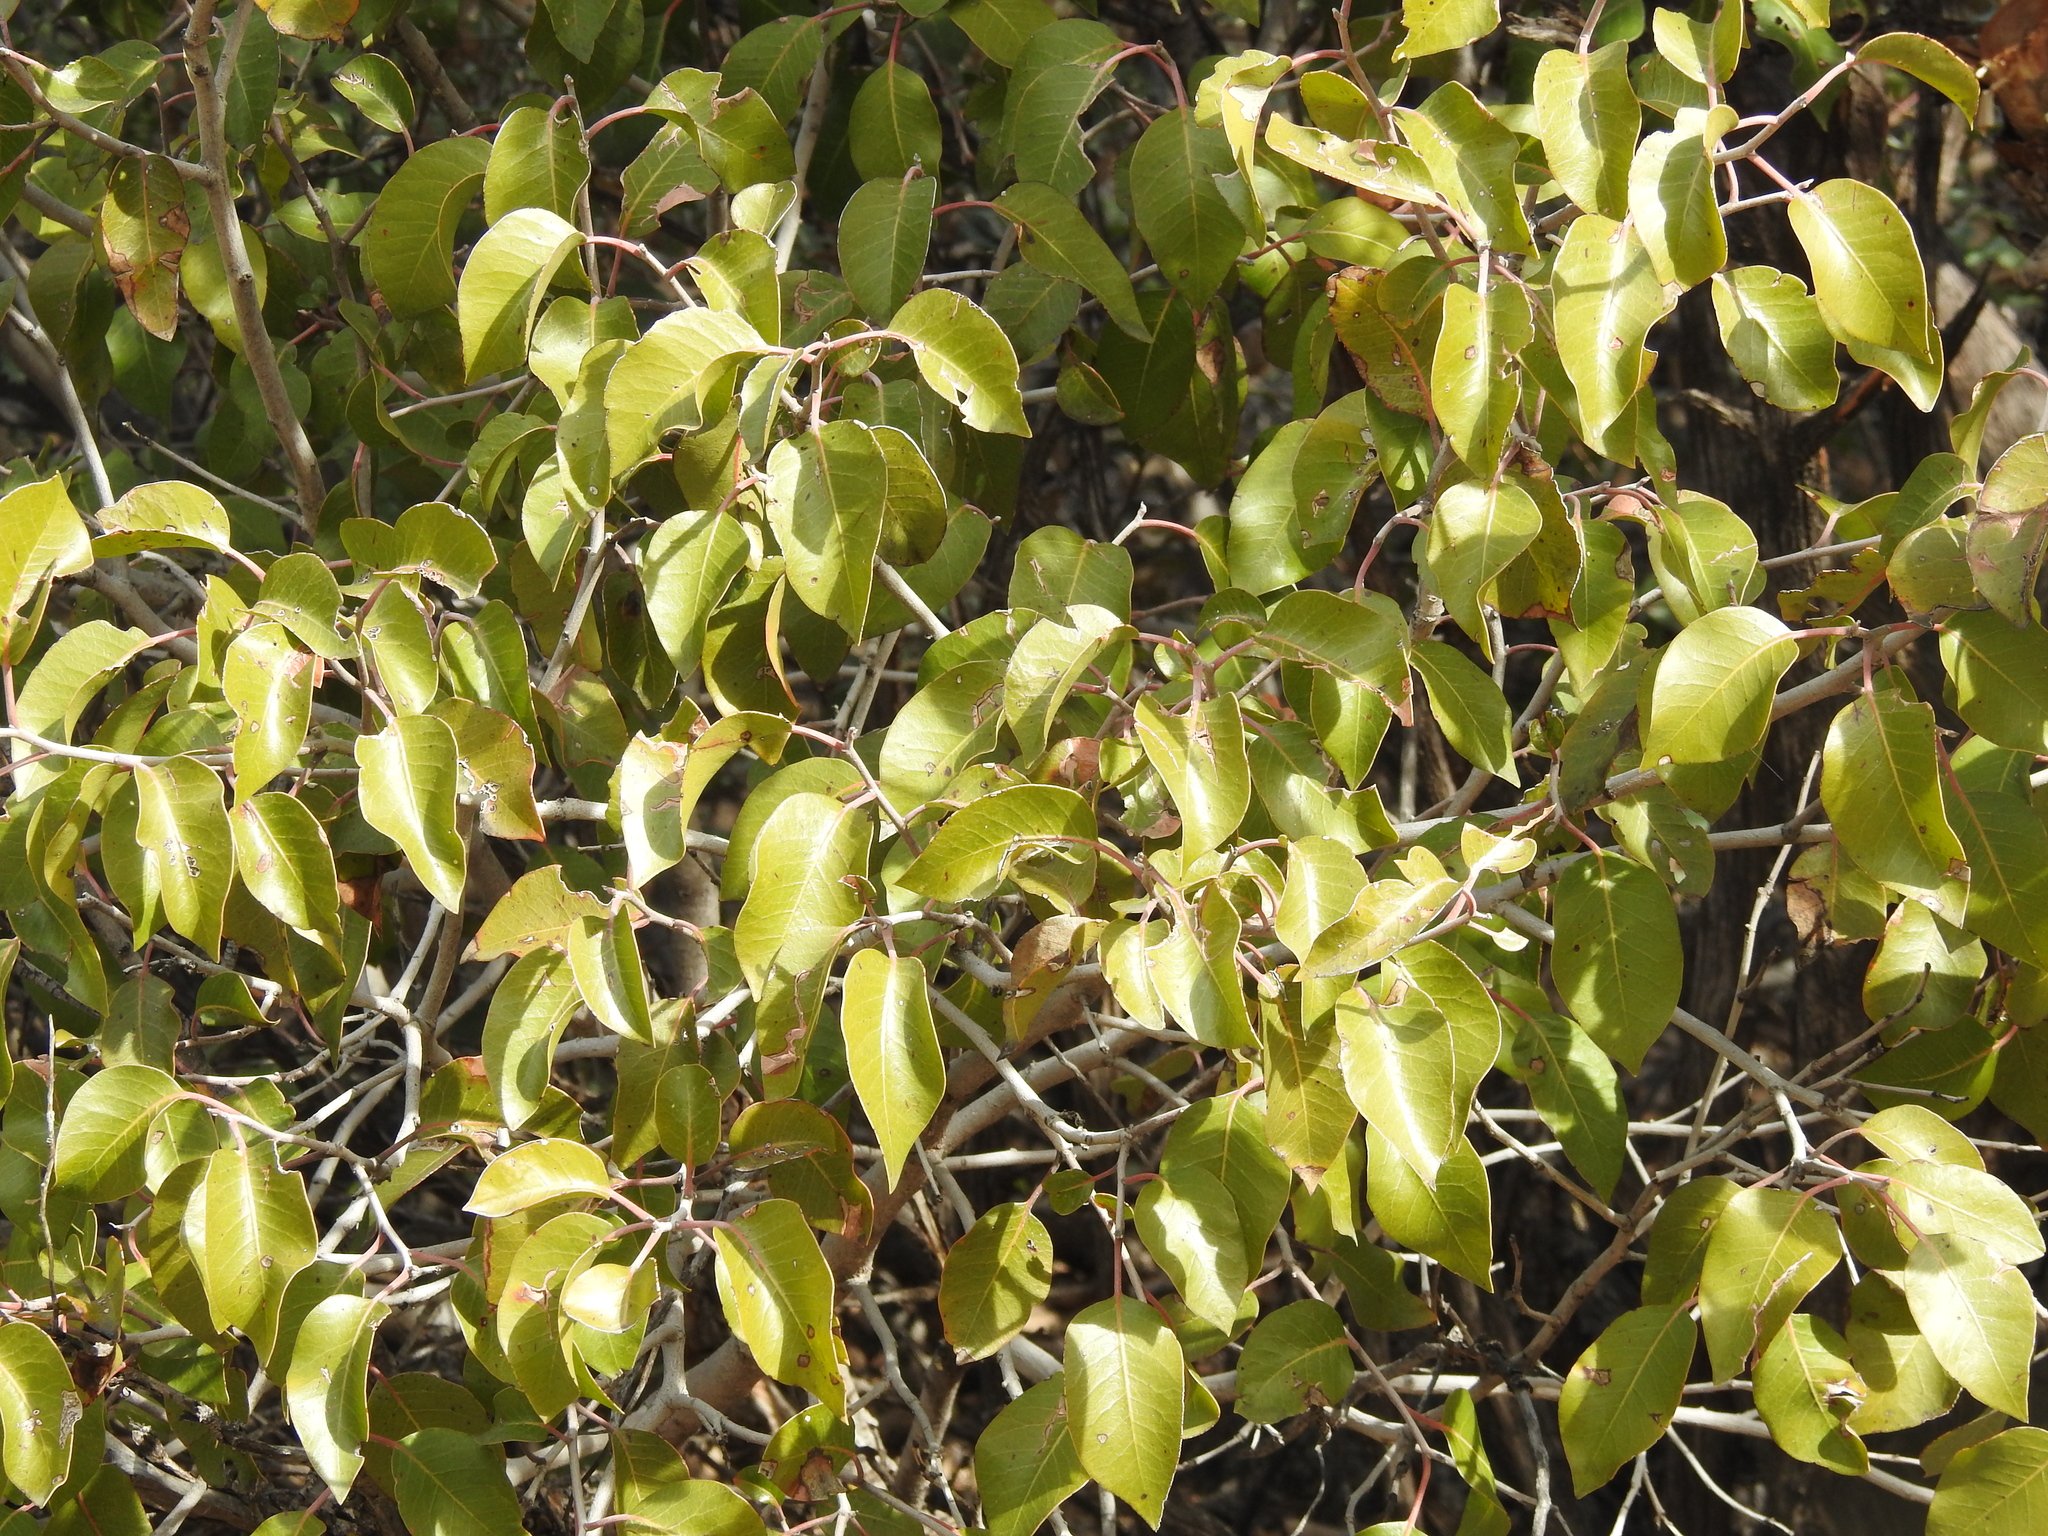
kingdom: Plantae
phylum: Tracheophyta
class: Magnoliopsida
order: Sapindales
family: Anacardiaceae
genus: Rhus
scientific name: Rhus ovata
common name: Sugar sumac
